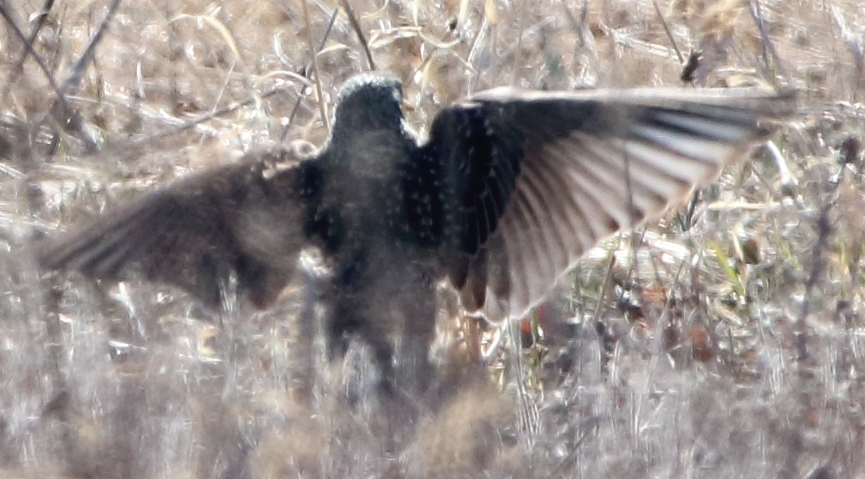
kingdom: Animalia
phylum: Chordata
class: Aves
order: Passeriformes
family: Sturnidae
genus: Sturnus
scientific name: Sturnus vulgaris
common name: Common starling
